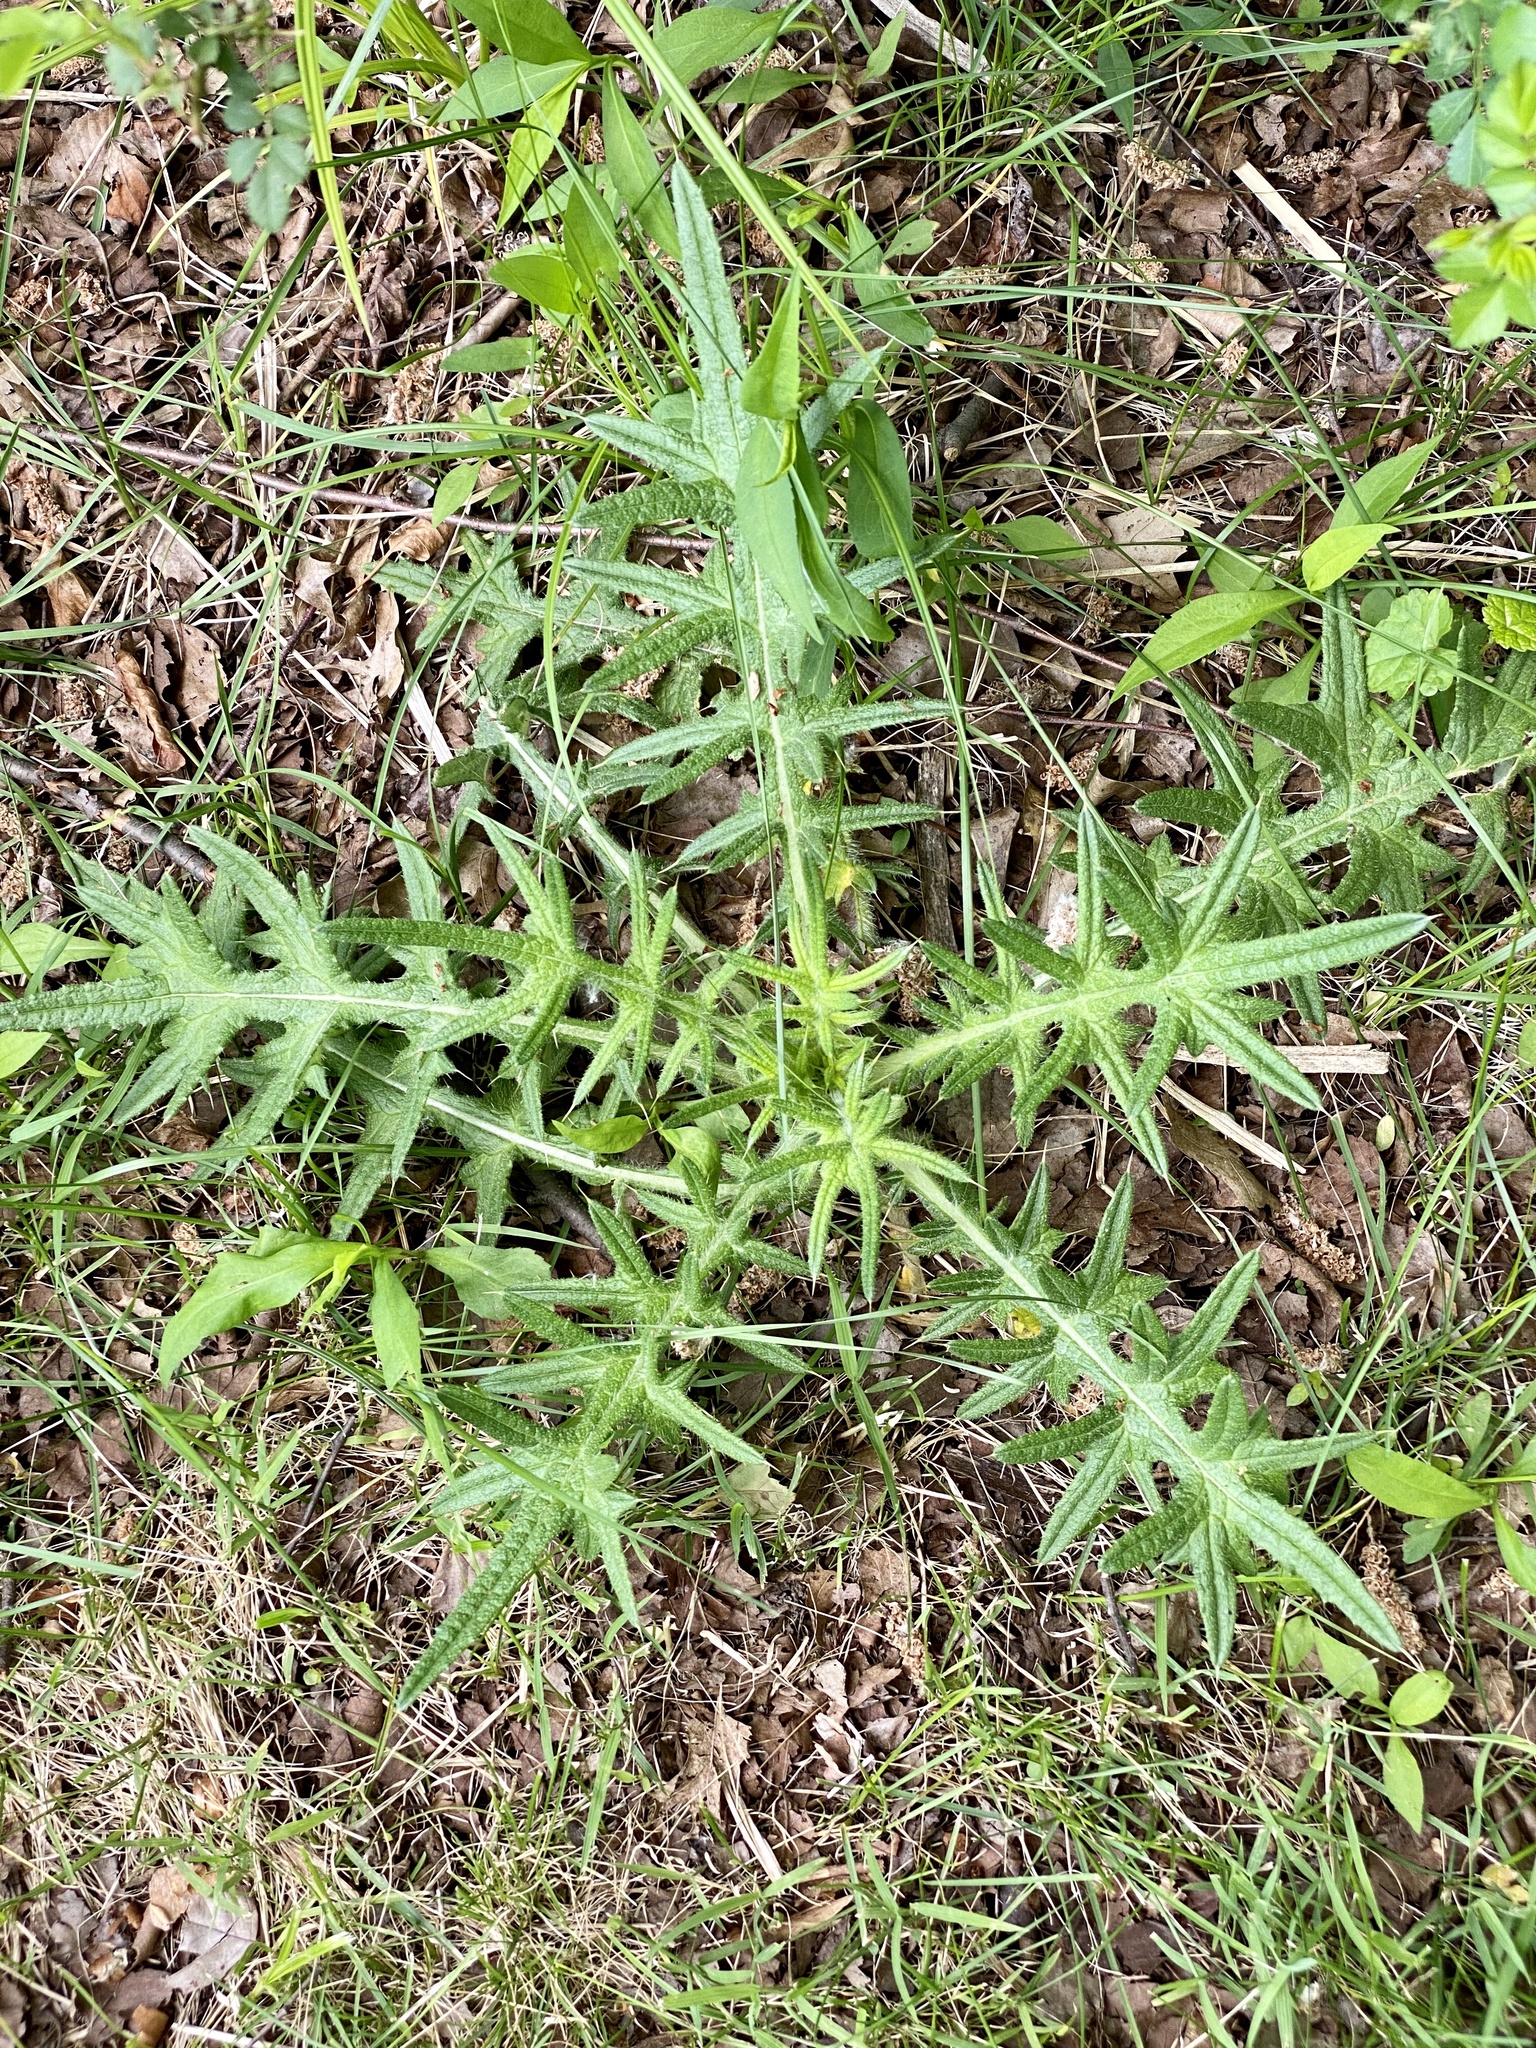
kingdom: Plantae
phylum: Tracheophyta
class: Magnoliopsida
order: Asterales
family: Asteraceae
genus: Cirsium
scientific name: Cirsium vulgare
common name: Bull thistle
